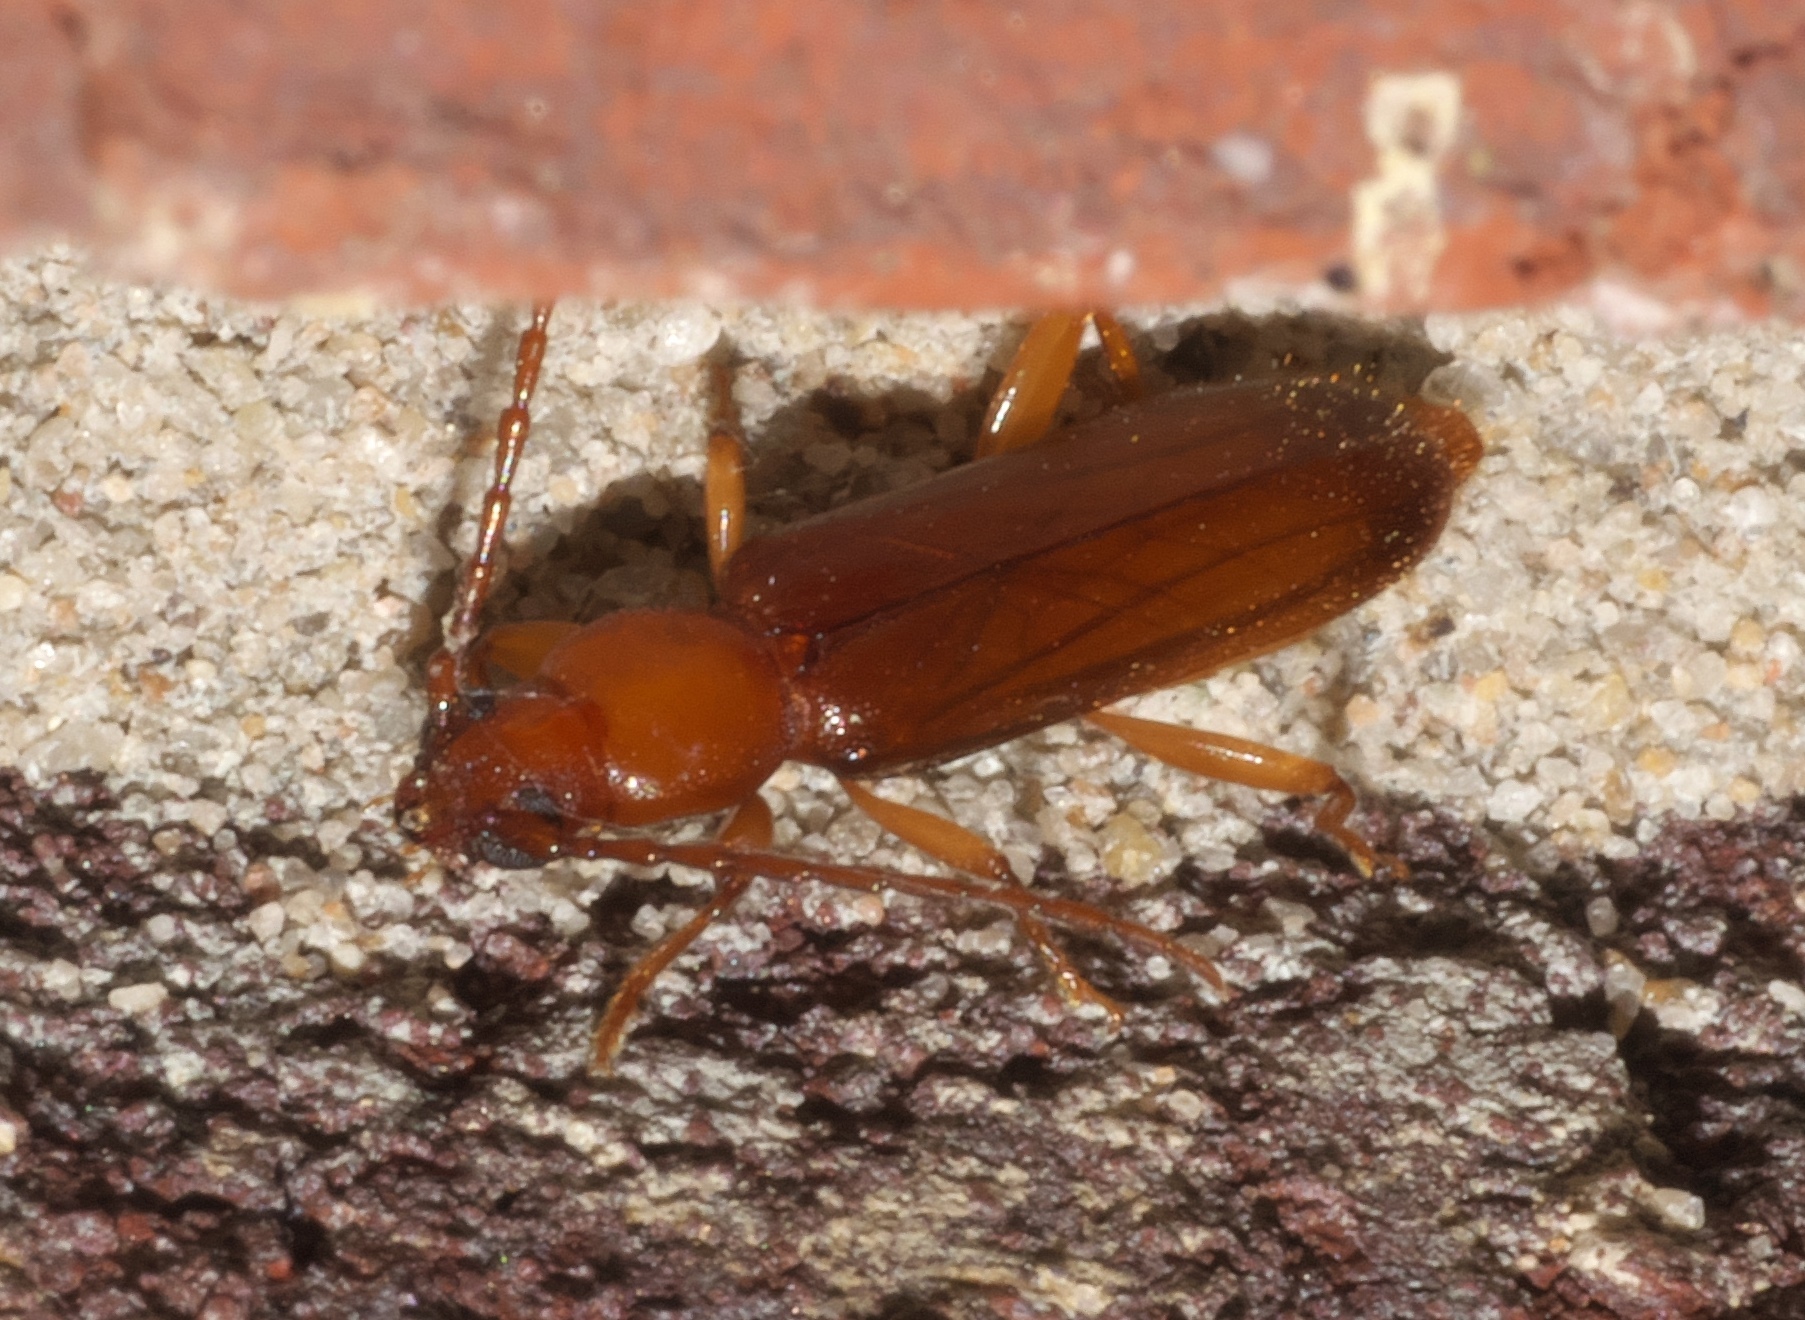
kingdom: Animalia
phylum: Arthropoda
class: Insecta
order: Coleoptera
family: Cerambycidae
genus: Smodicum
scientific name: Smodicum cucujiforme
